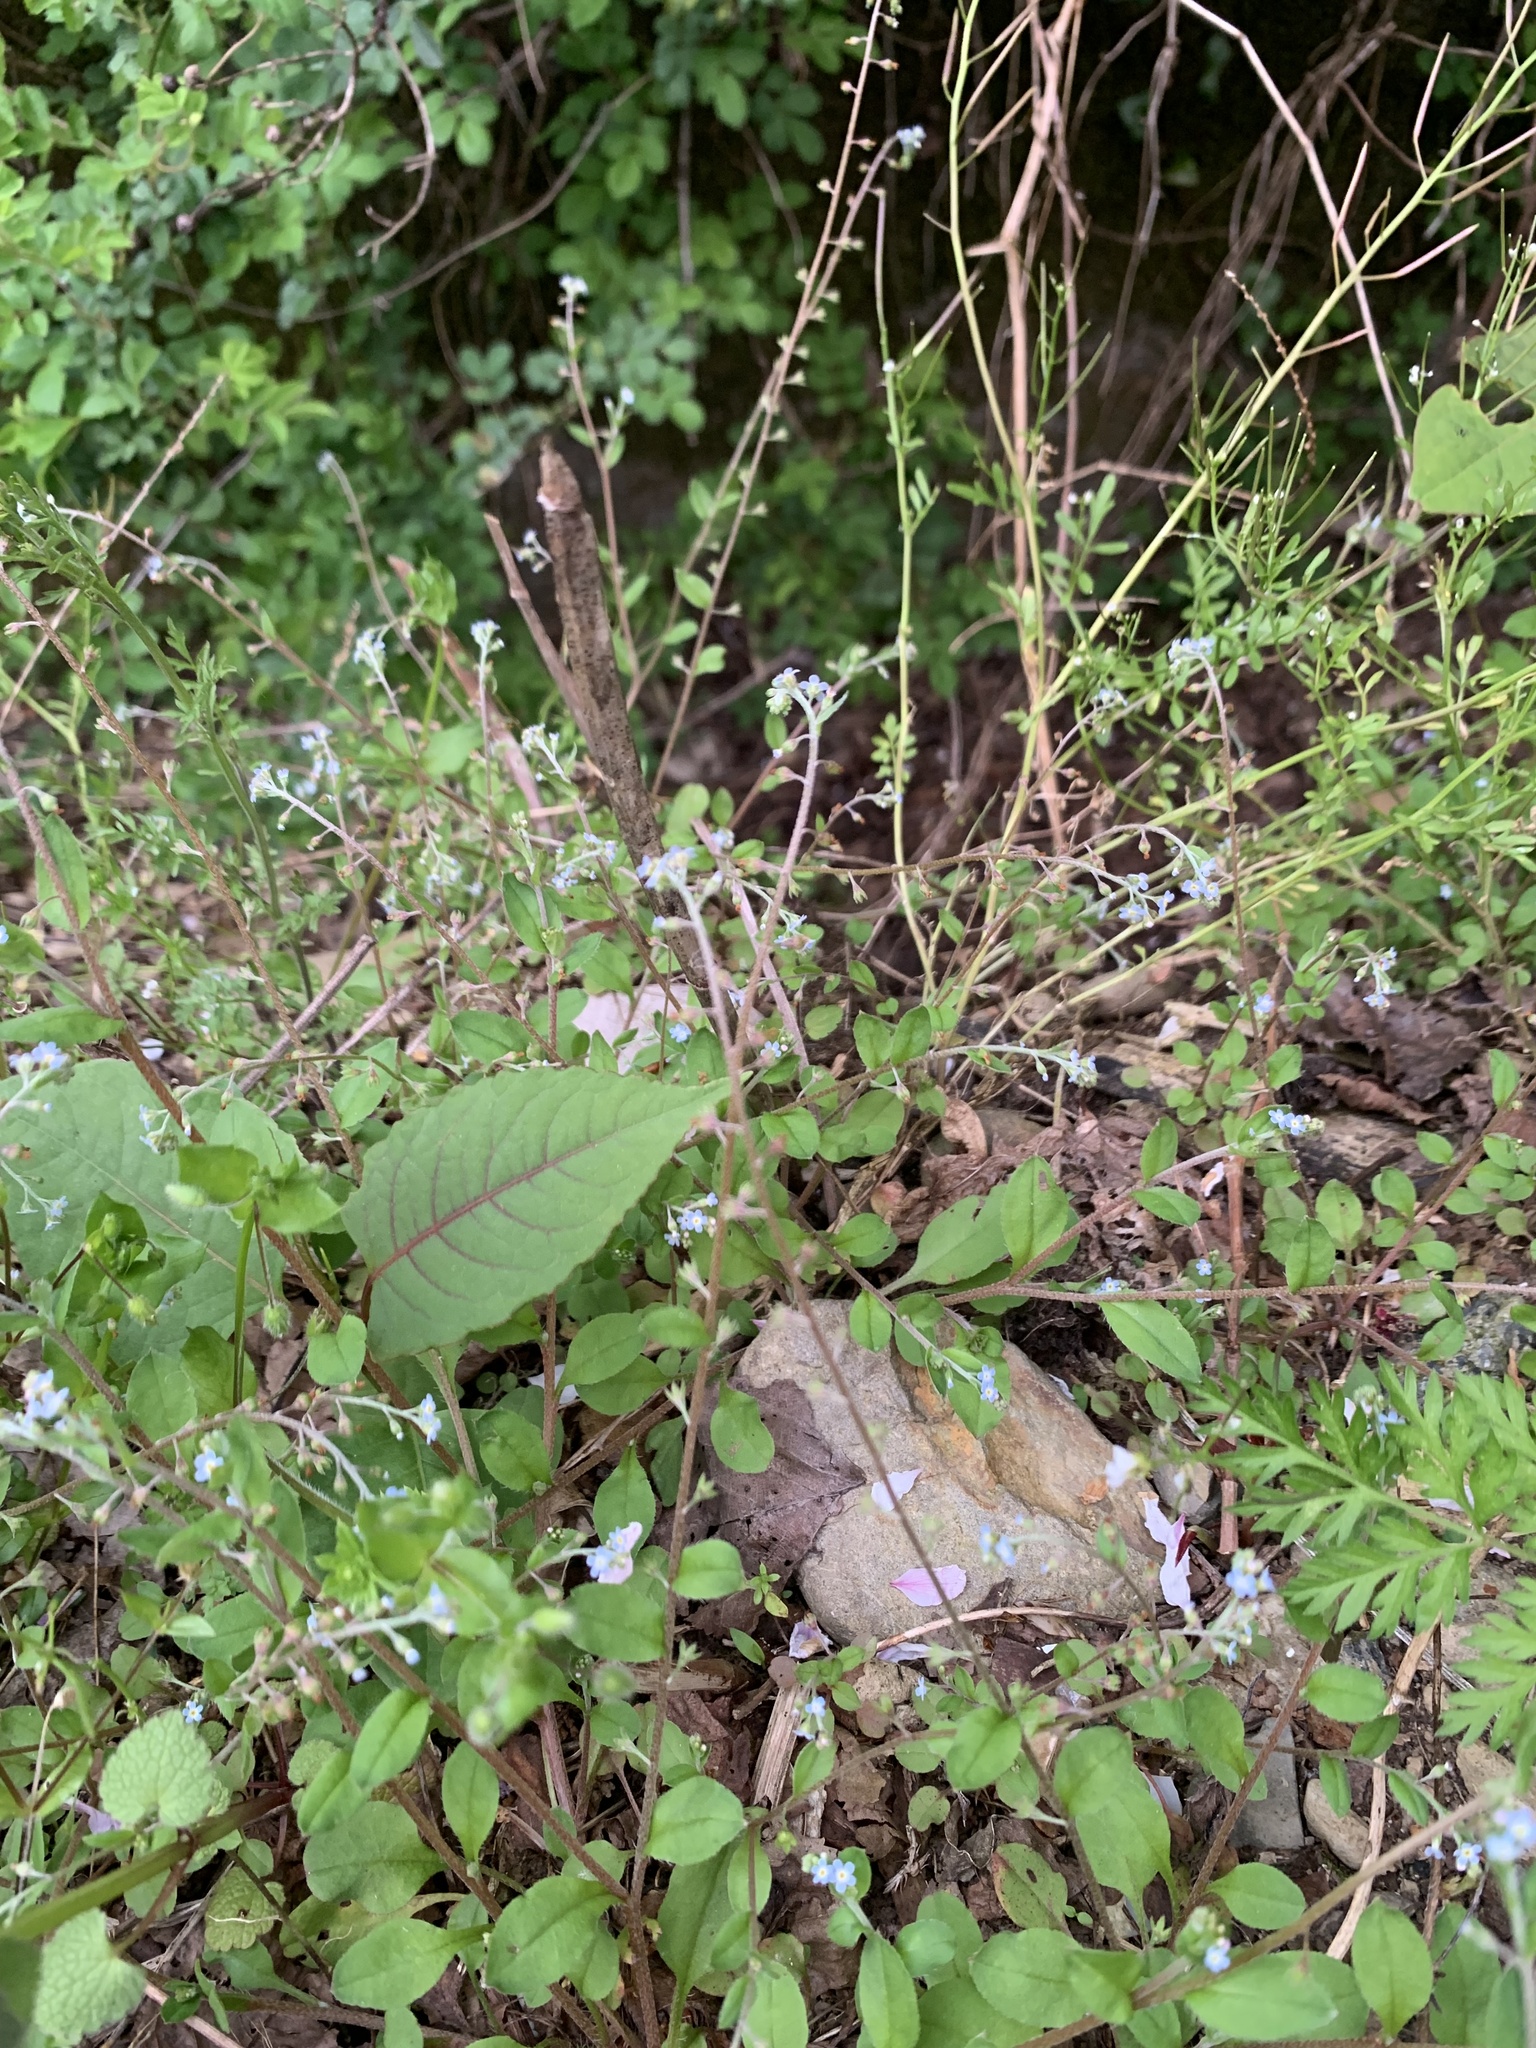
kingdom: Plantae
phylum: Tracheophyta
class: Magnoliopsida
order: Boraginales
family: Boraginaceae
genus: Trigonotis
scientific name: Trigonotis peduncularis
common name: Cucumber herb
